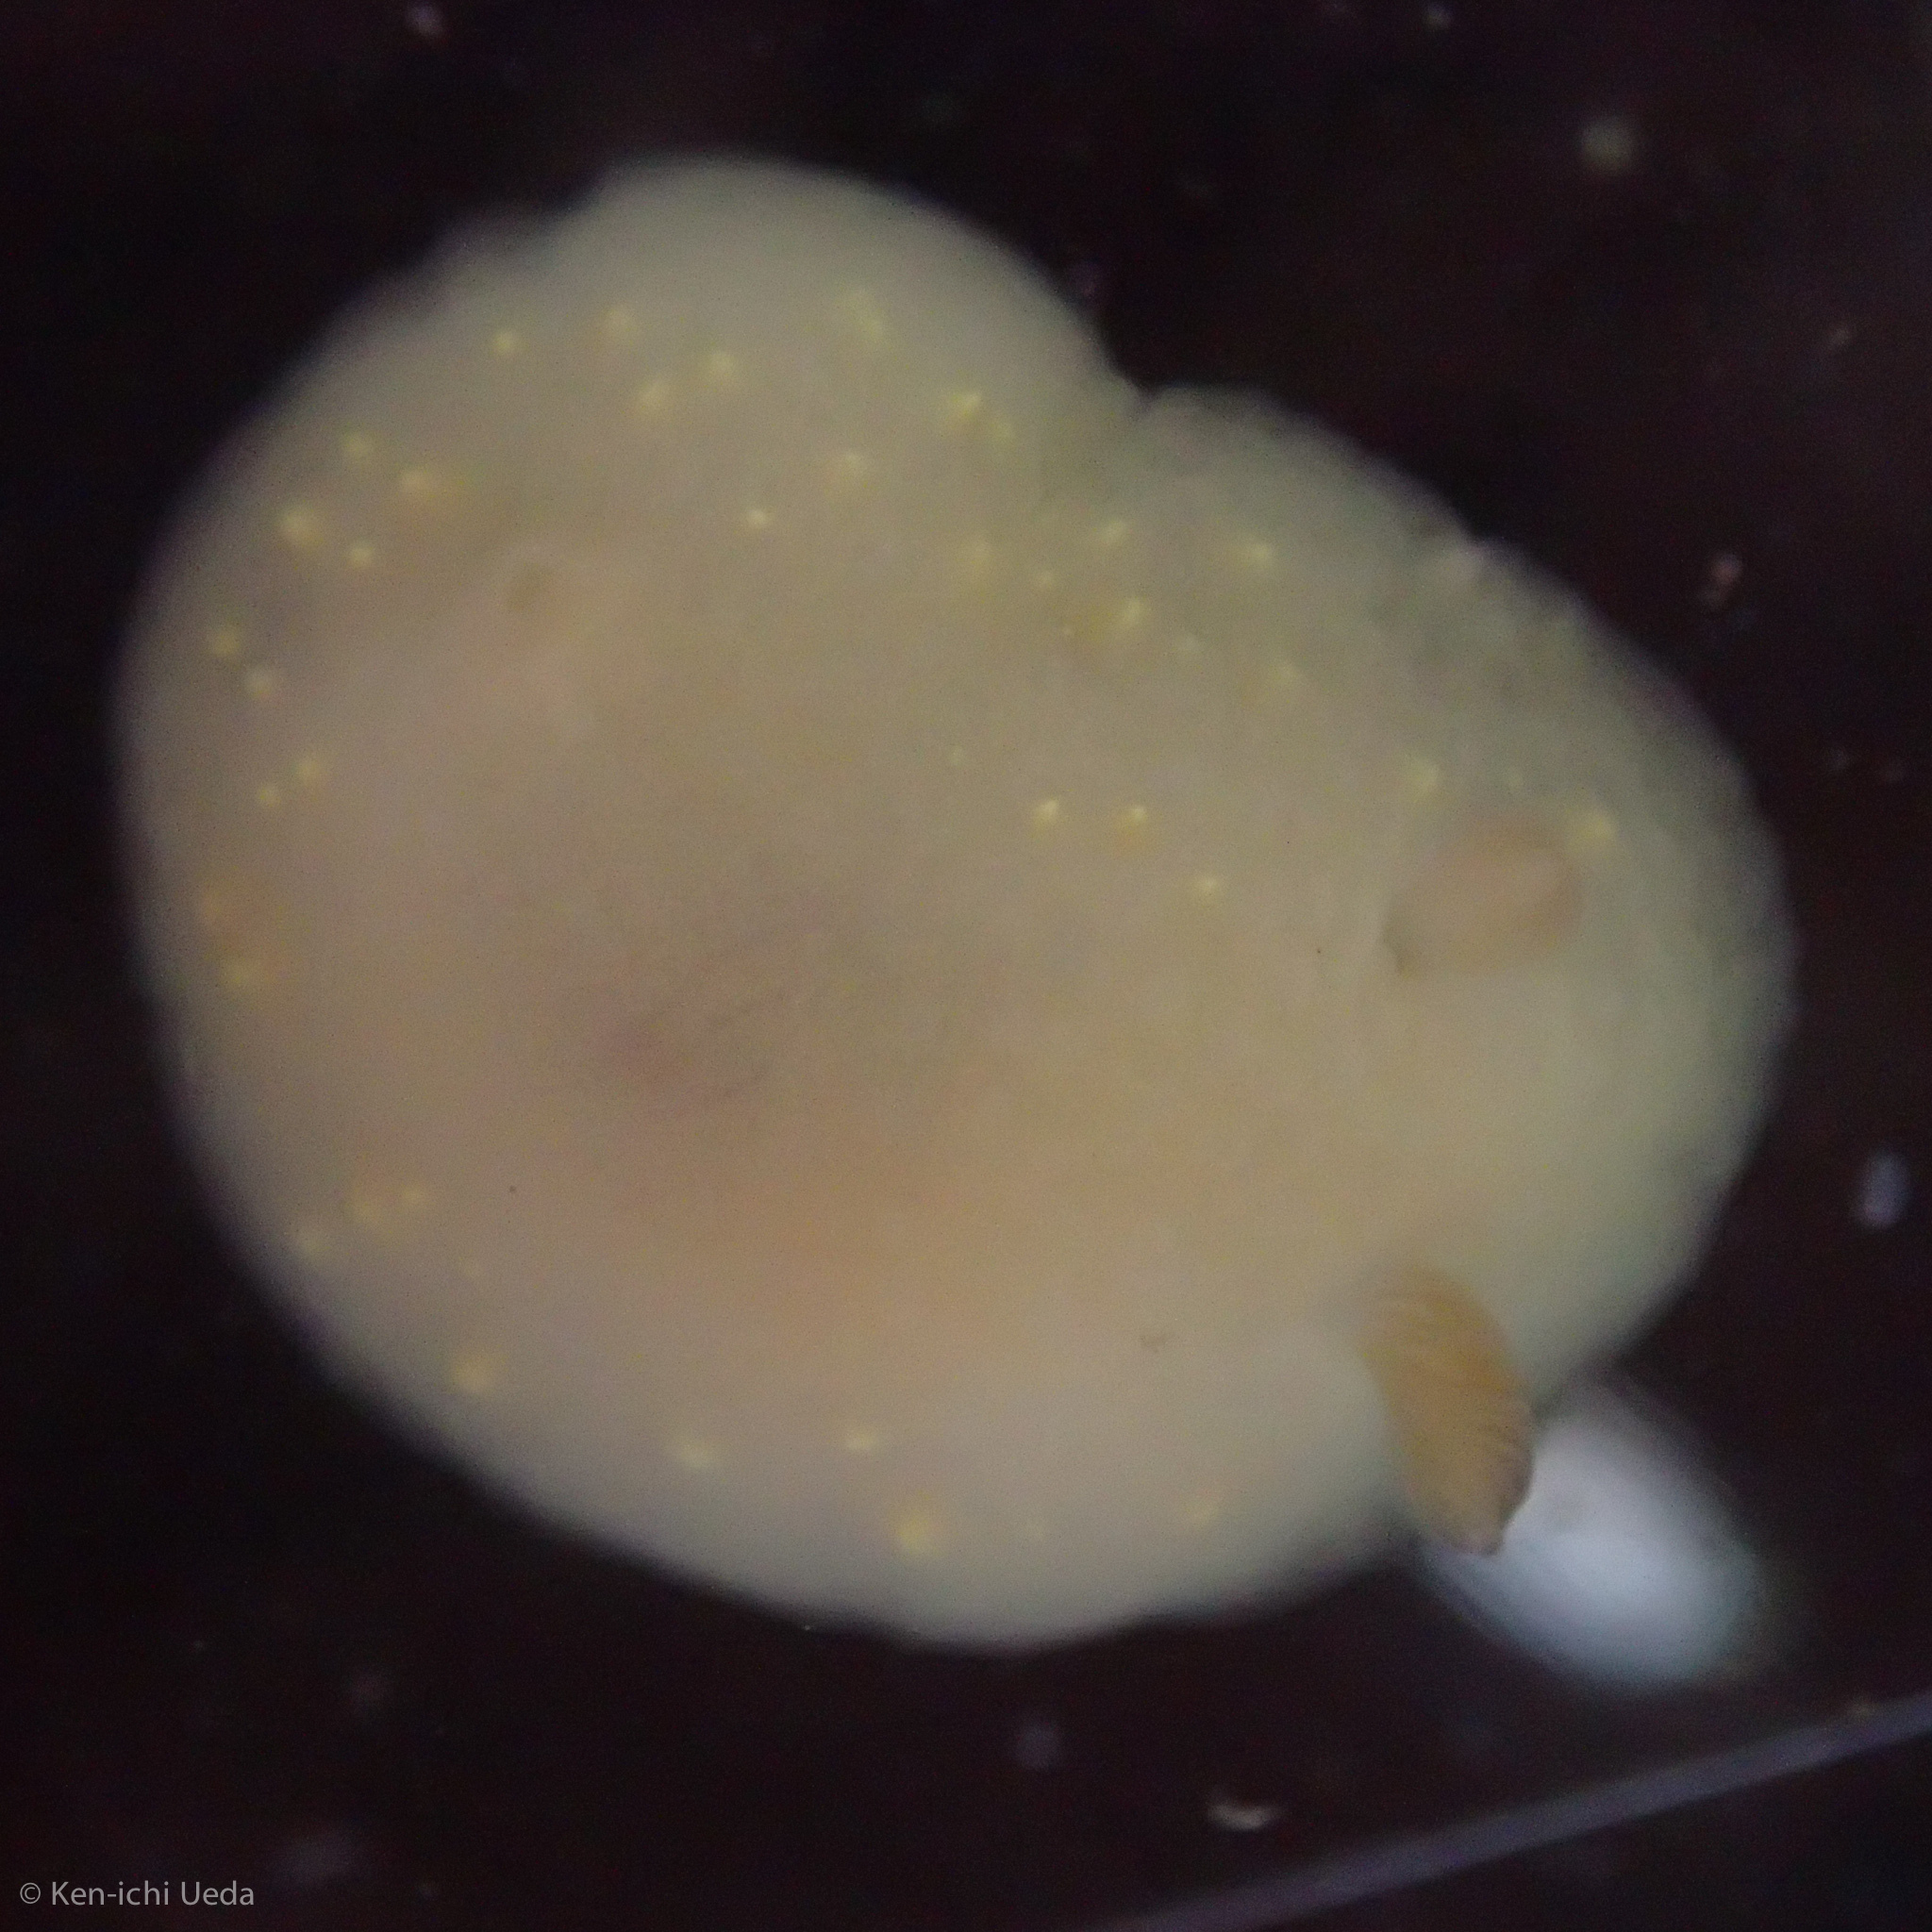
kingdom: Animalia
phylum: Mollusca
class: Gastropoda
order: Nudibranchia
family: Cadlinidae
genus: Cadlina
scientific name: Cadlina modesta
